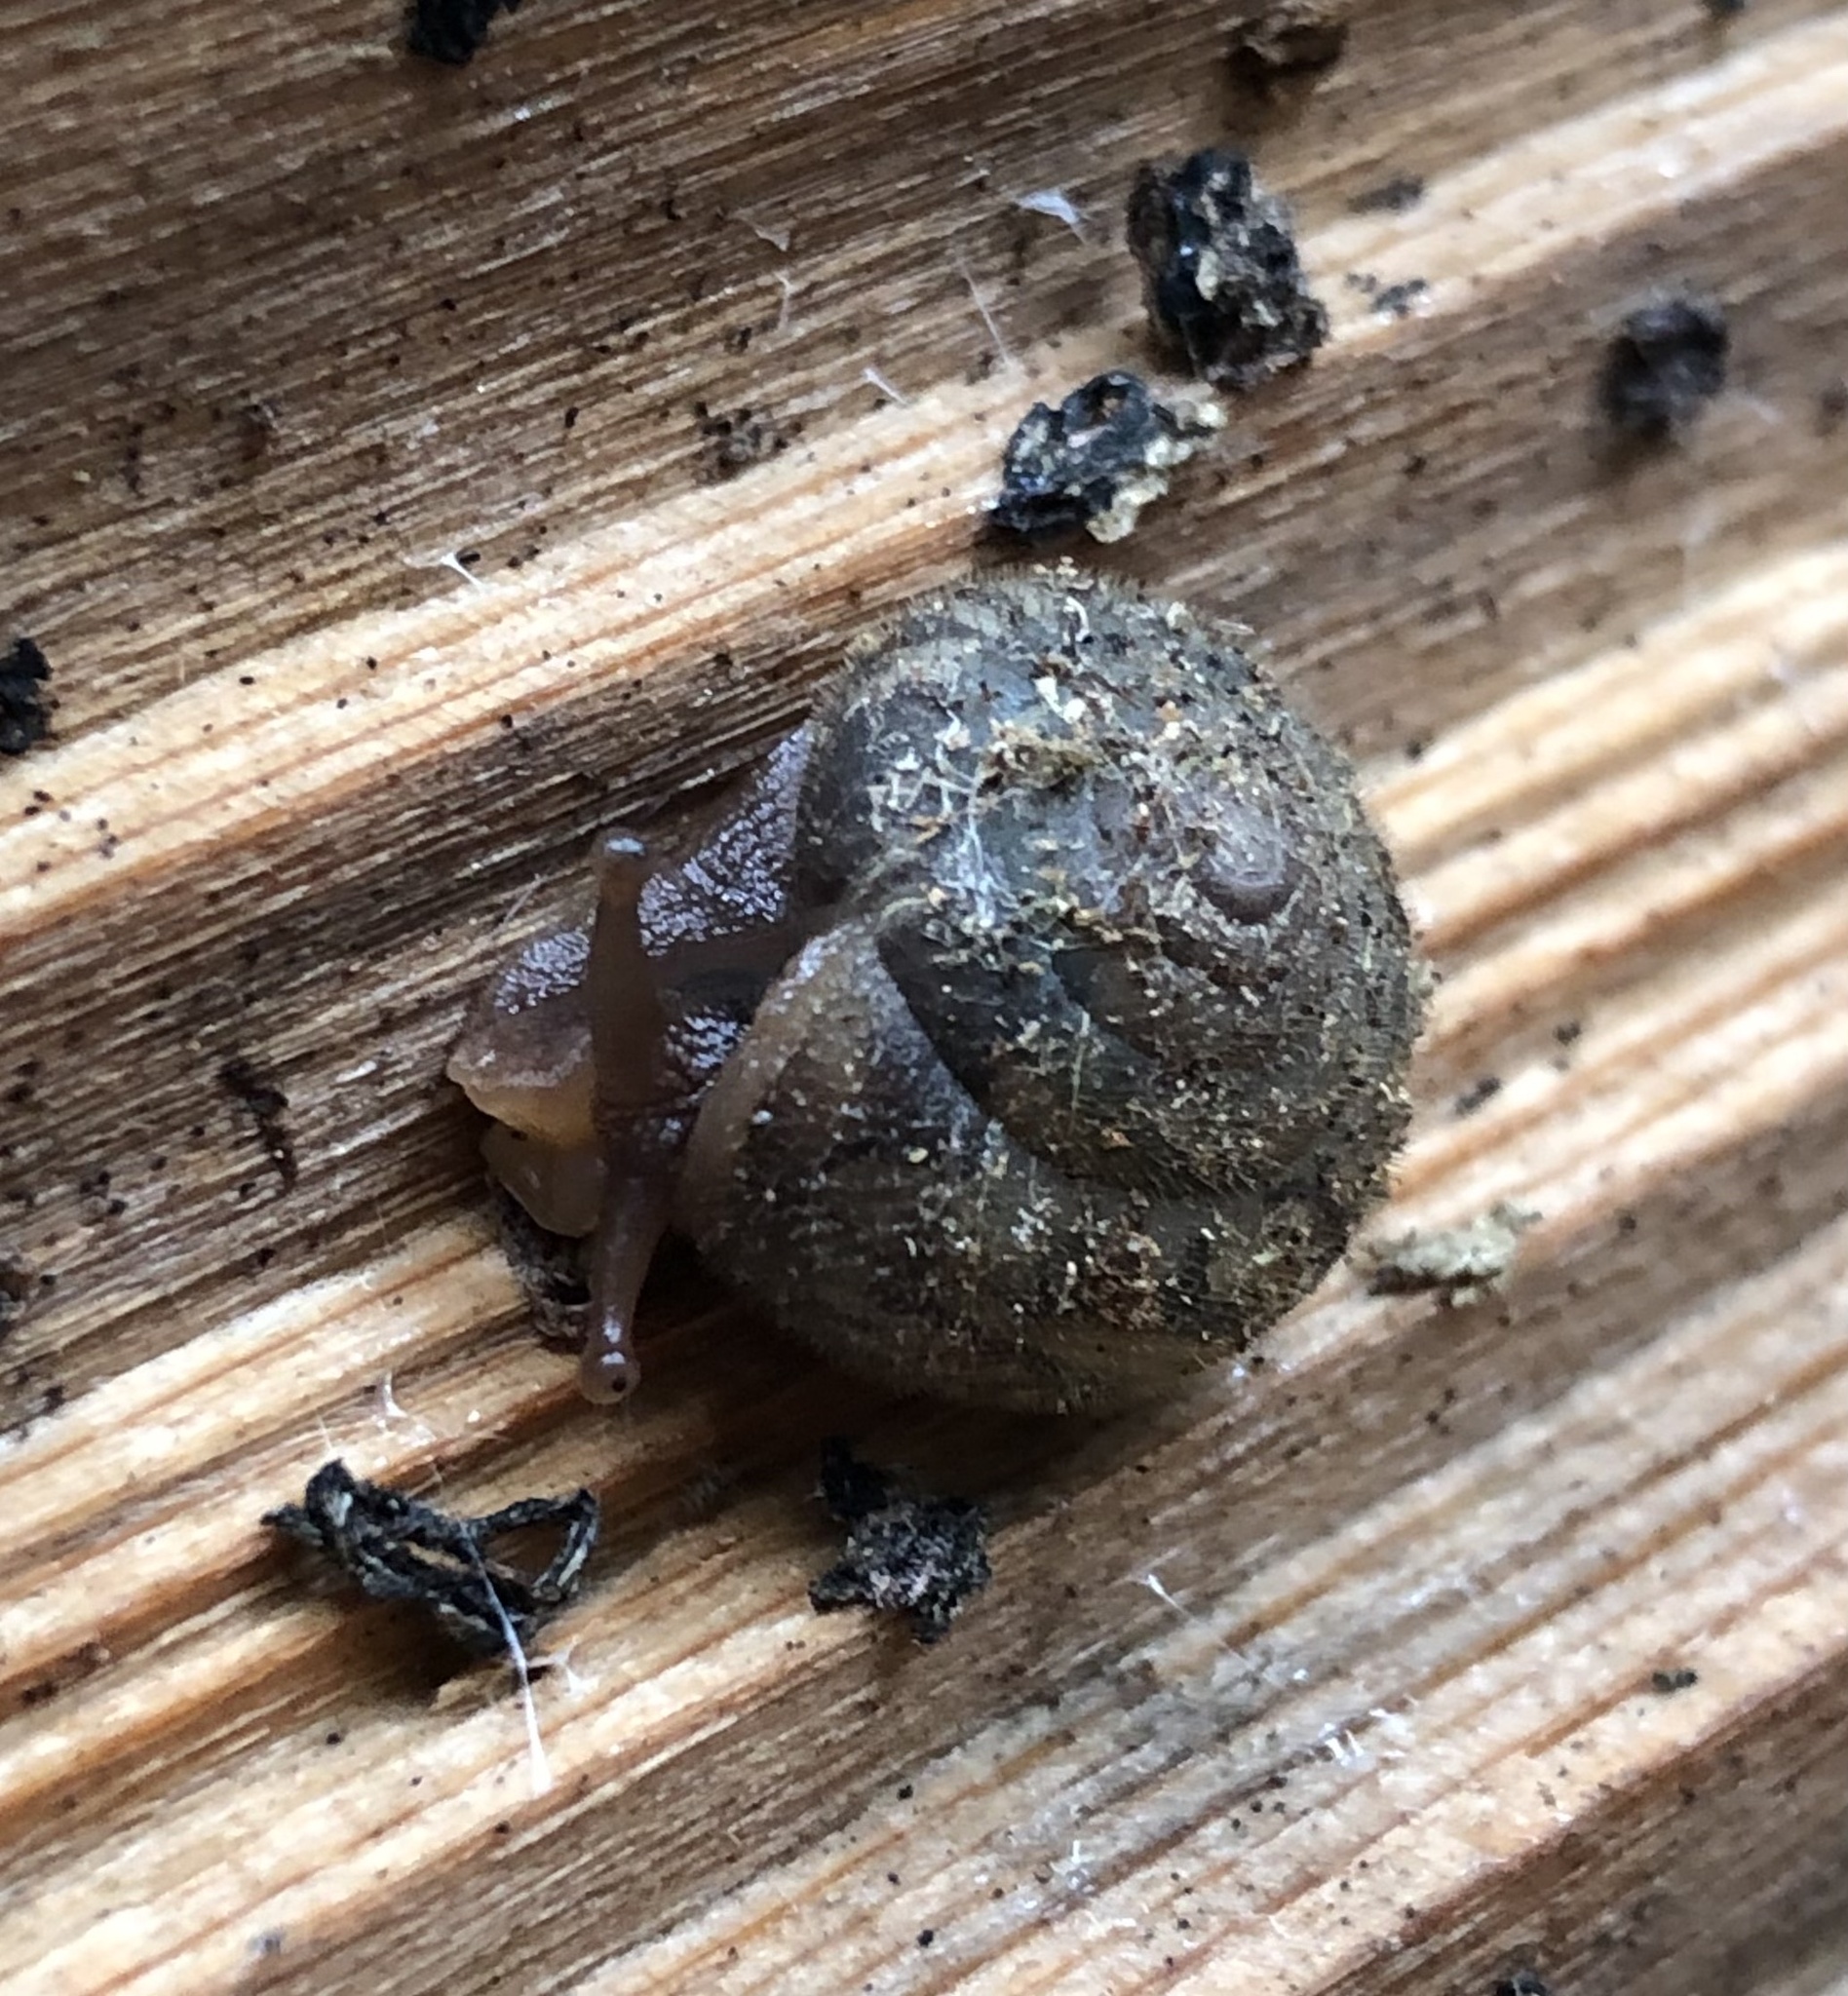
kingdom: Animalia
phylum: Mollusca
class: Gastropoda
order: Stylommatophora
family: Polygyridae
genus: Vespericola
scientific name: Vespericola columbianus
